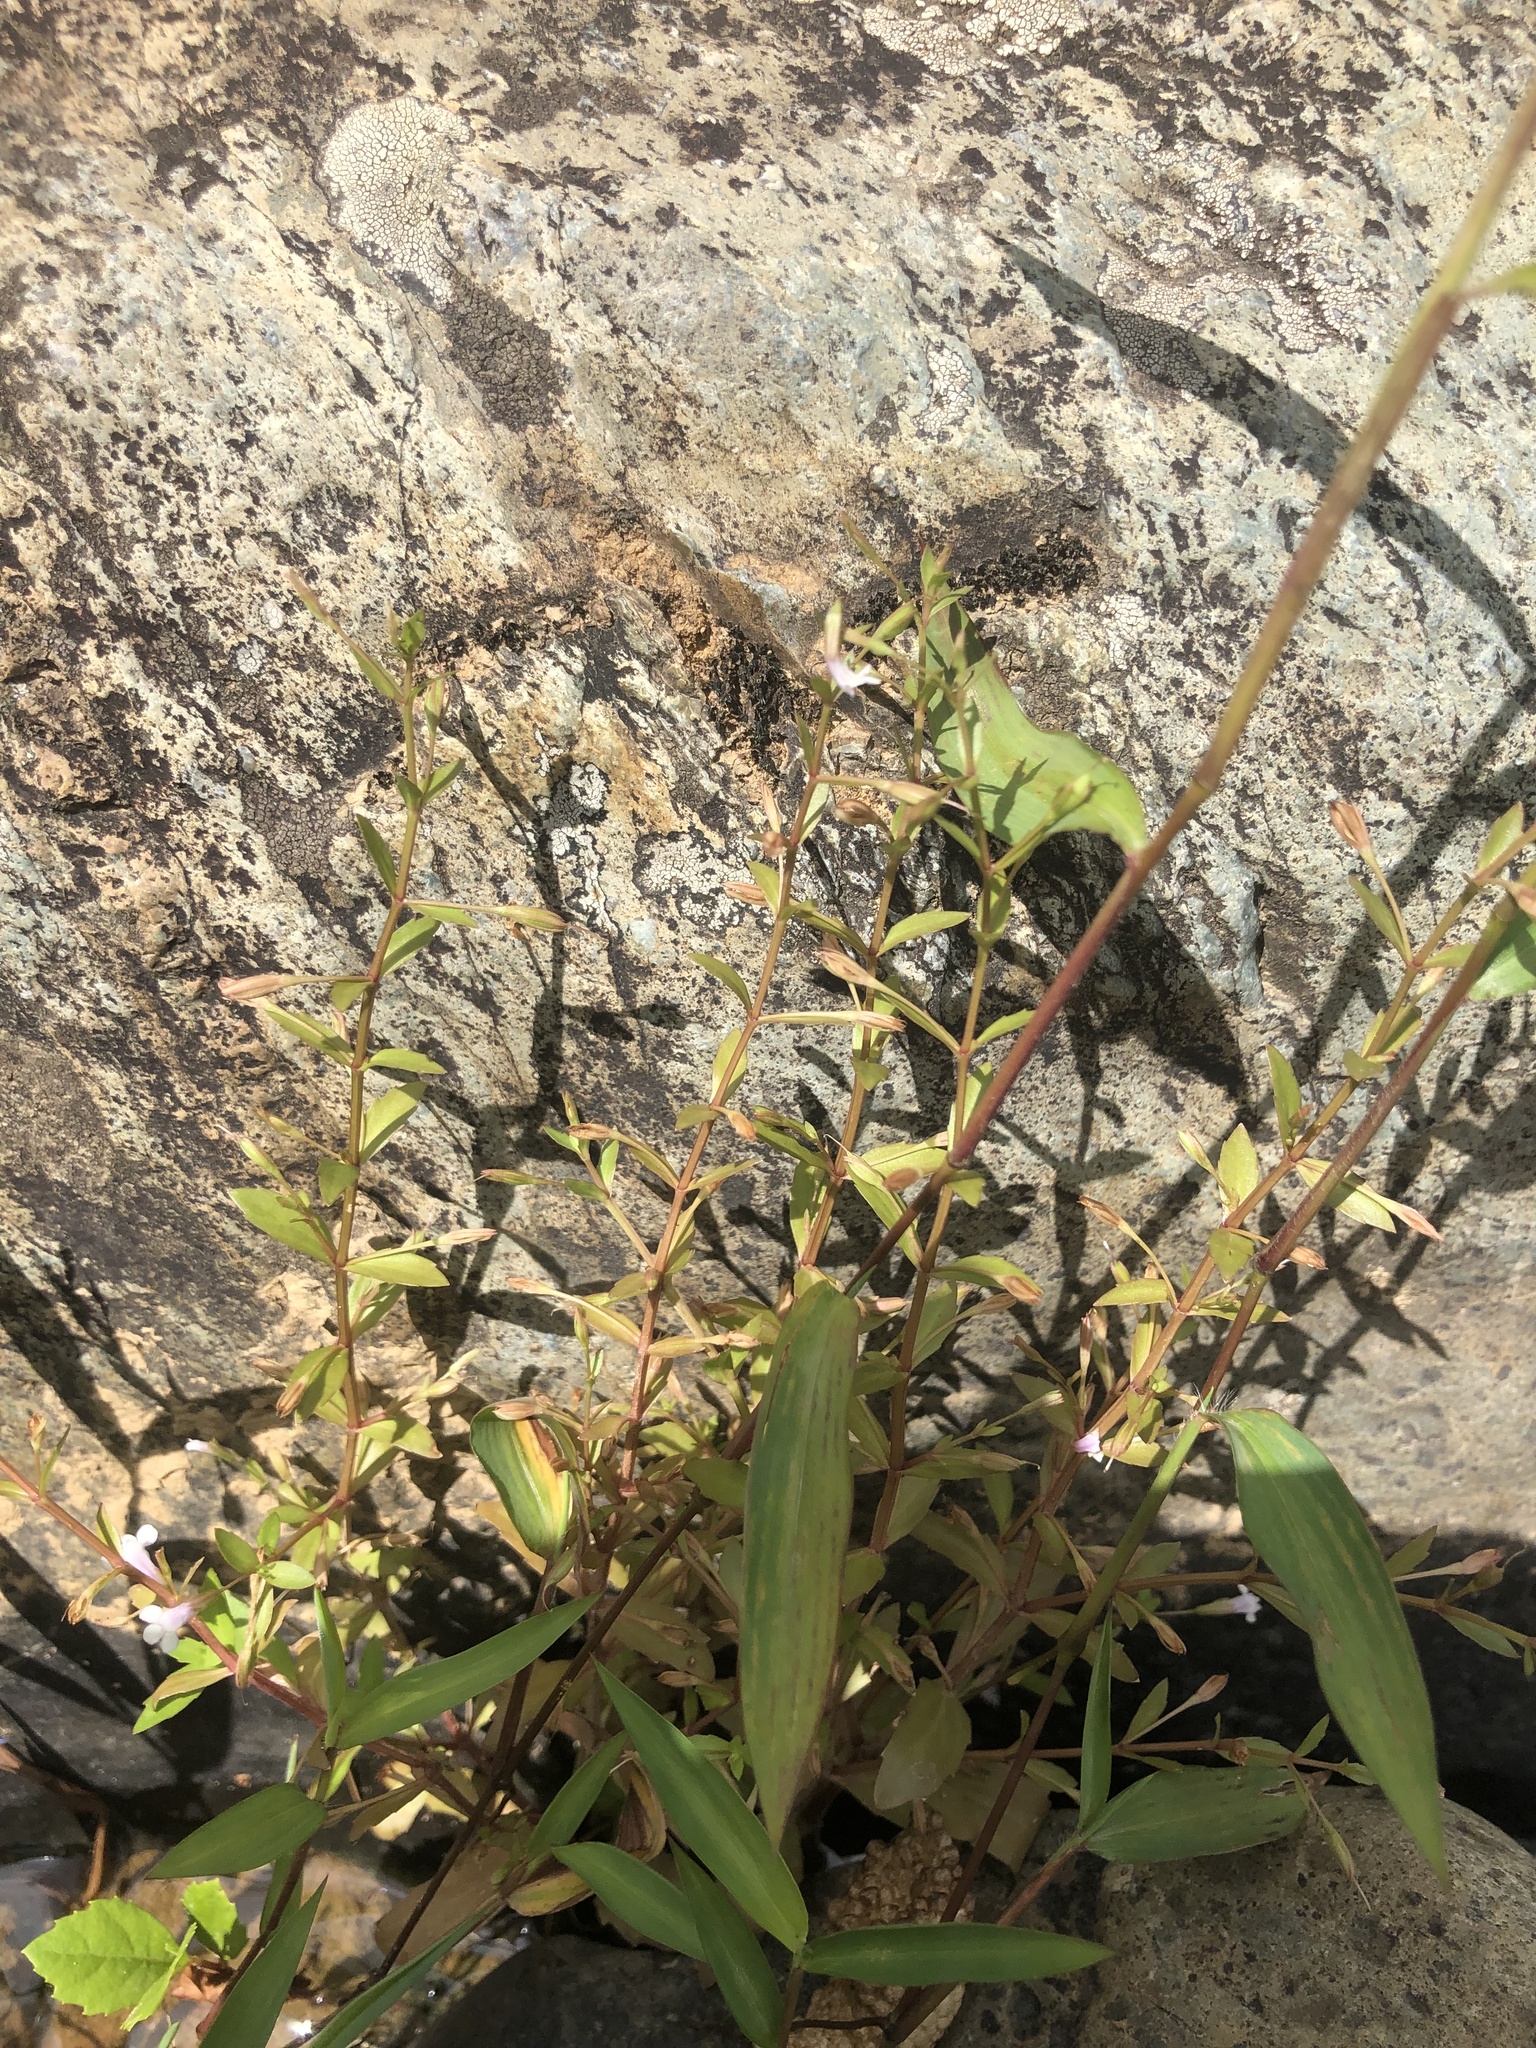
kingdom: Plantae
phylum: Tracheophyta
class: Magnoliopsida
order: Lamiales
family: Linderniaceae
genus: Lindernia
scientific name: Lindernia dubia
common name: Annual false pimpernel
